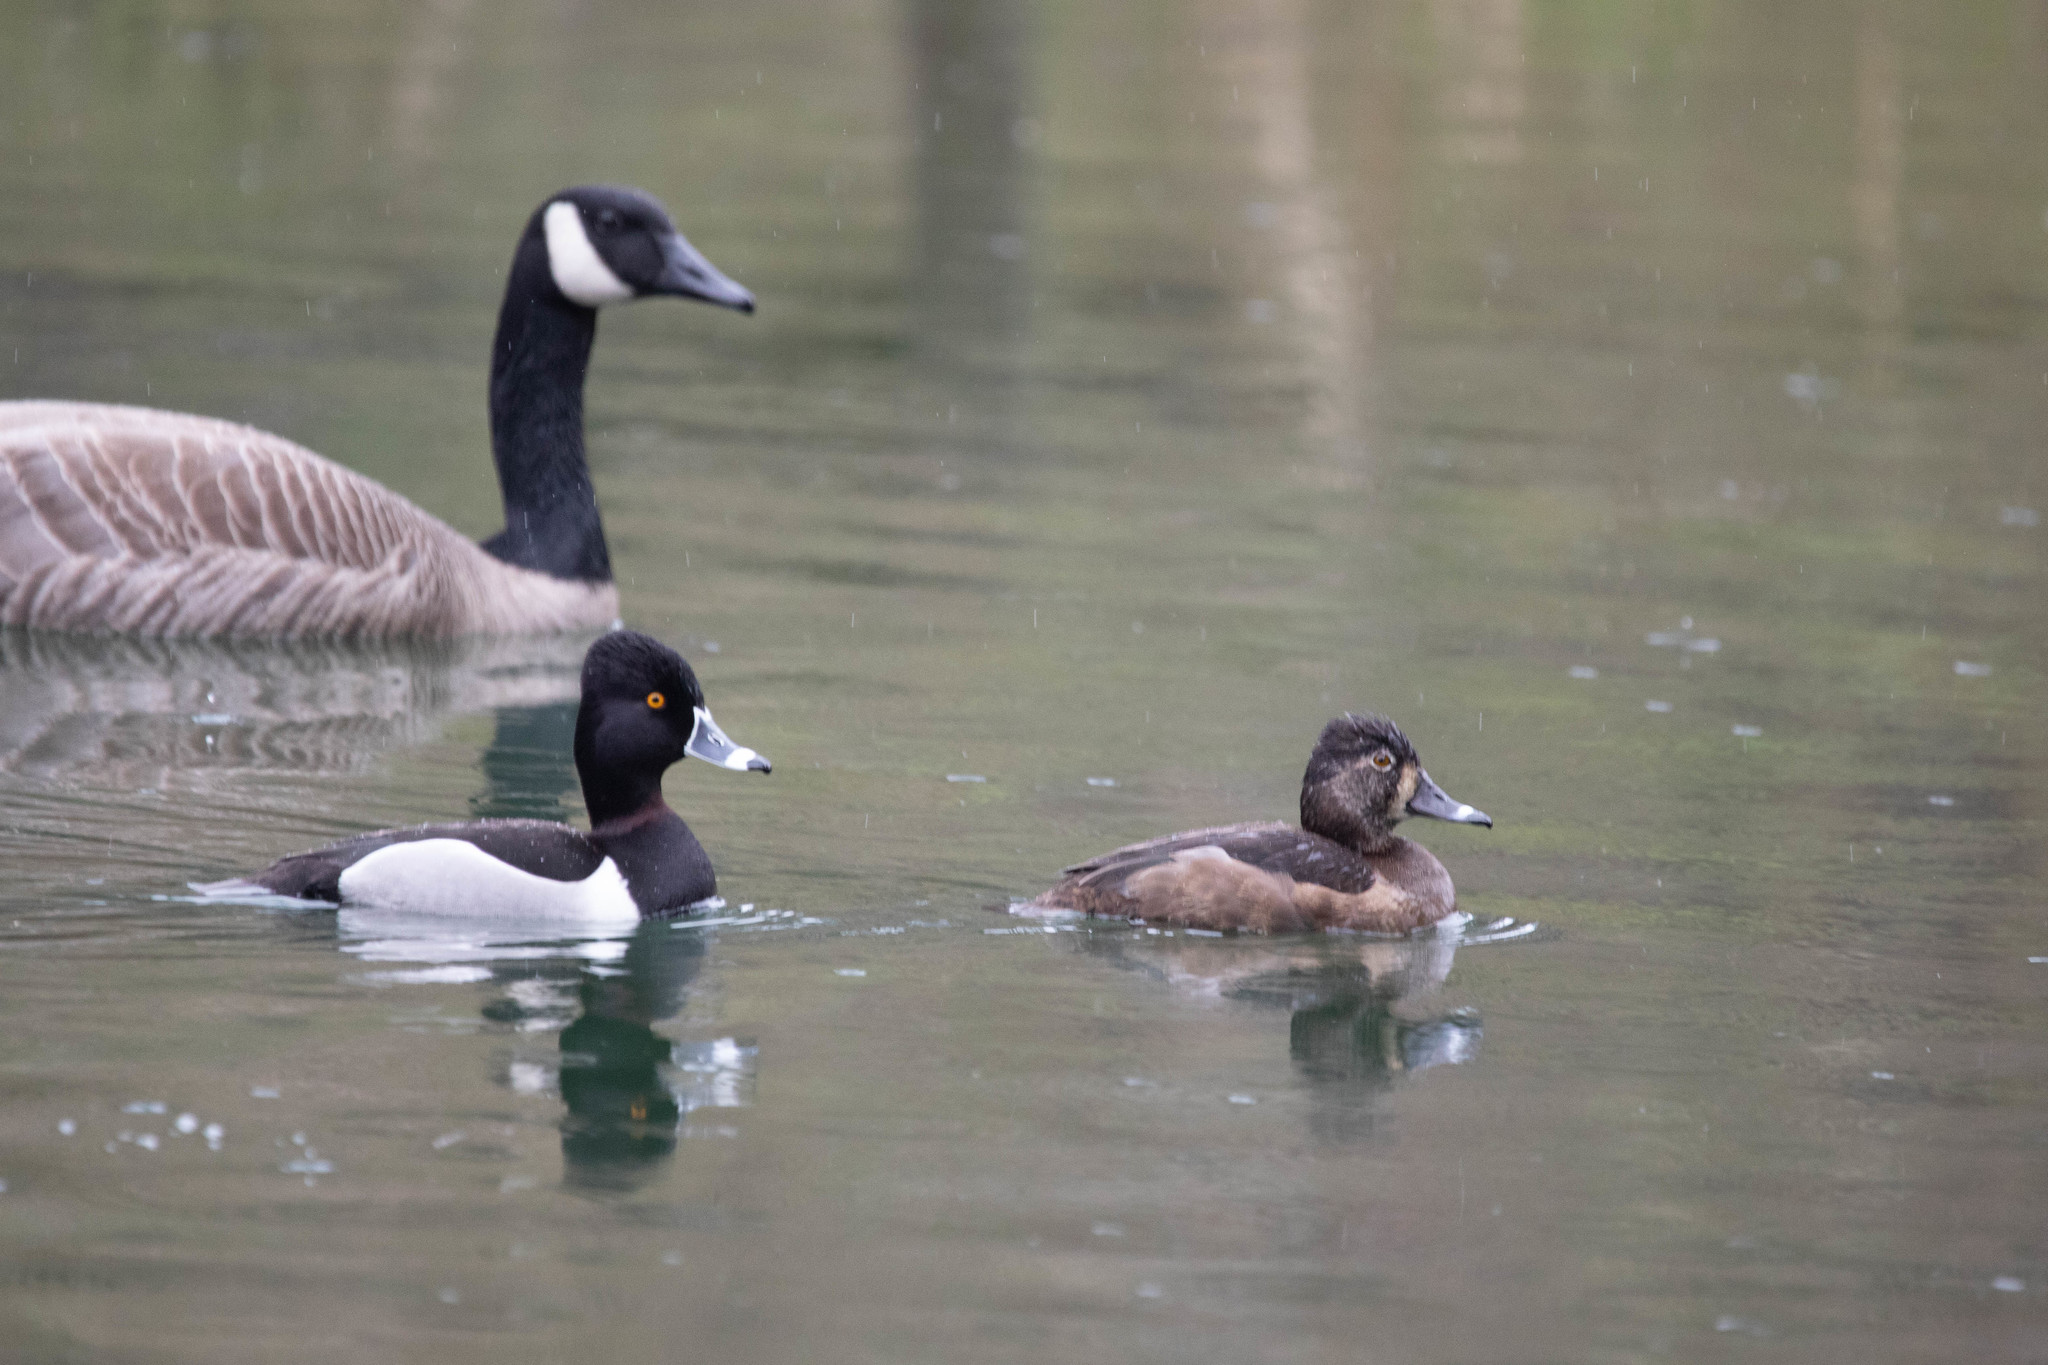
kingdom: Animalia
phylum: Chordata
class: Aves
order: Anseriformes
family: Anatidae
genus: Aythya
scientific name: Aythya collaris
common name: Ring-necked duck
